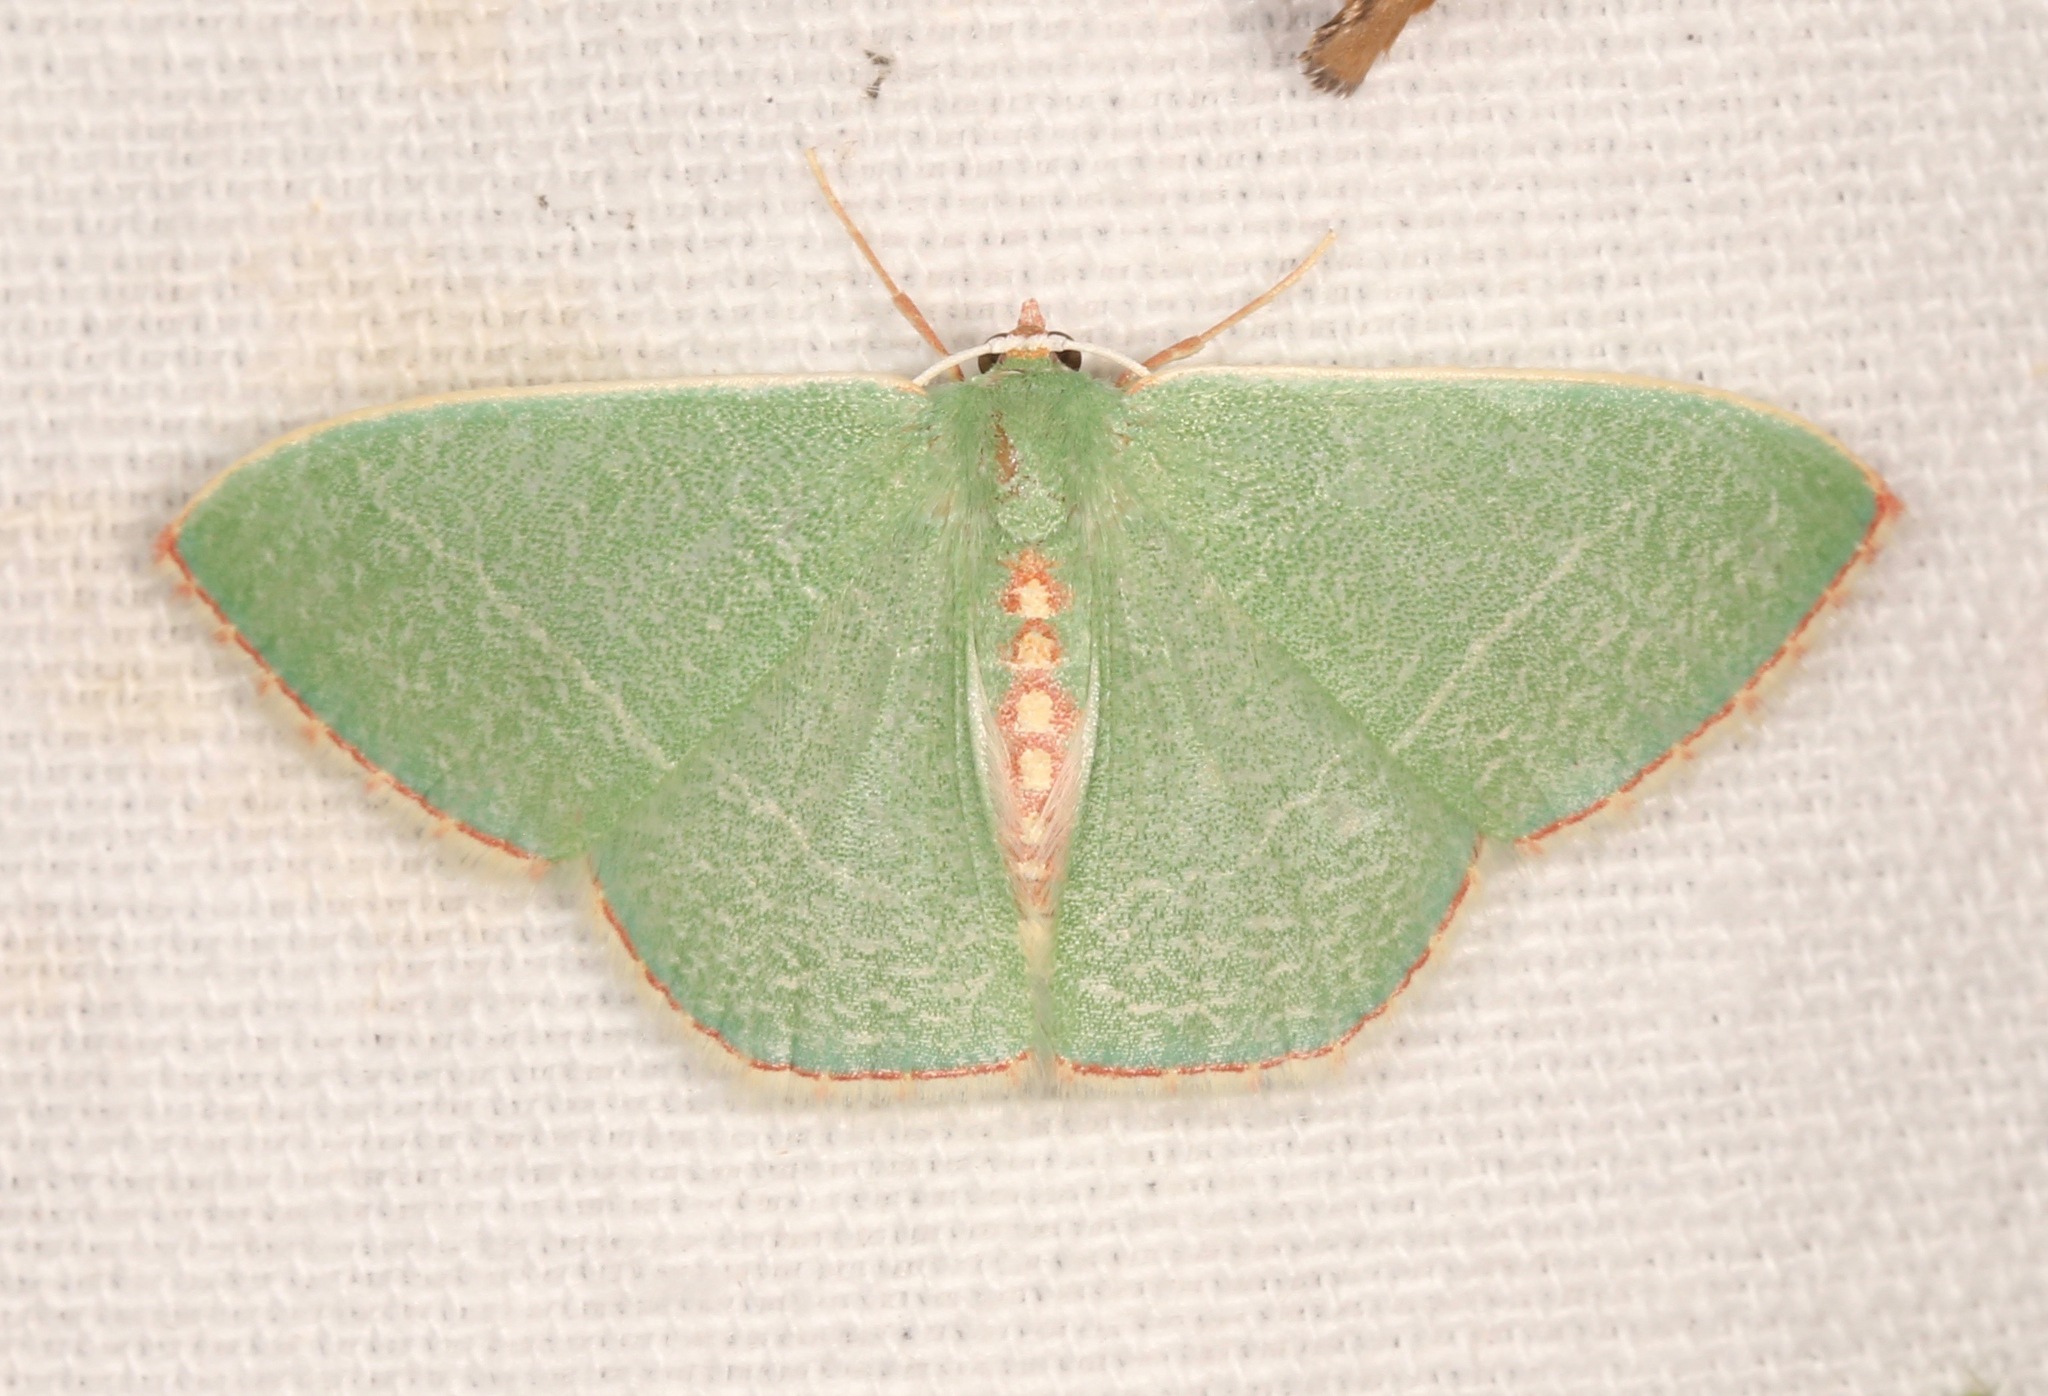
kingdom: Animalia
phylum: Arthropoda
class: Insecta
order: Lepidoptera
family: Geometridae
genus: Nemoria
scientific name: Nemoria festaria
